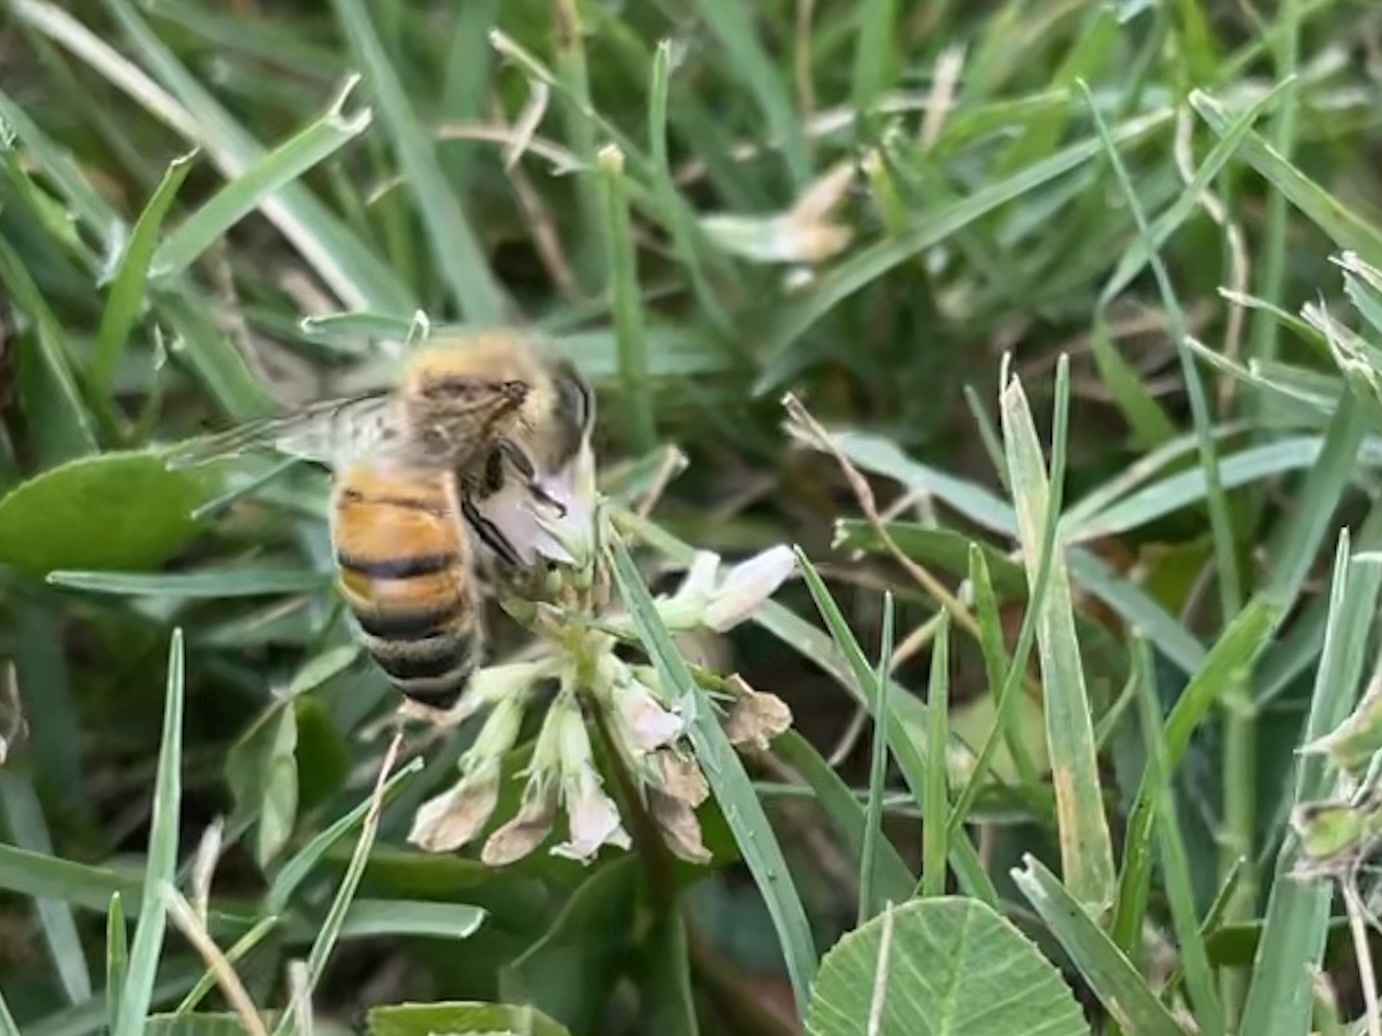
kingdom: Animalia
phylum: Arthropoda
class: Insecta
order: Hymenoptera
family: Apidae
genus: Apis
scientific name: Apis mellifera
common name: Honey bee
